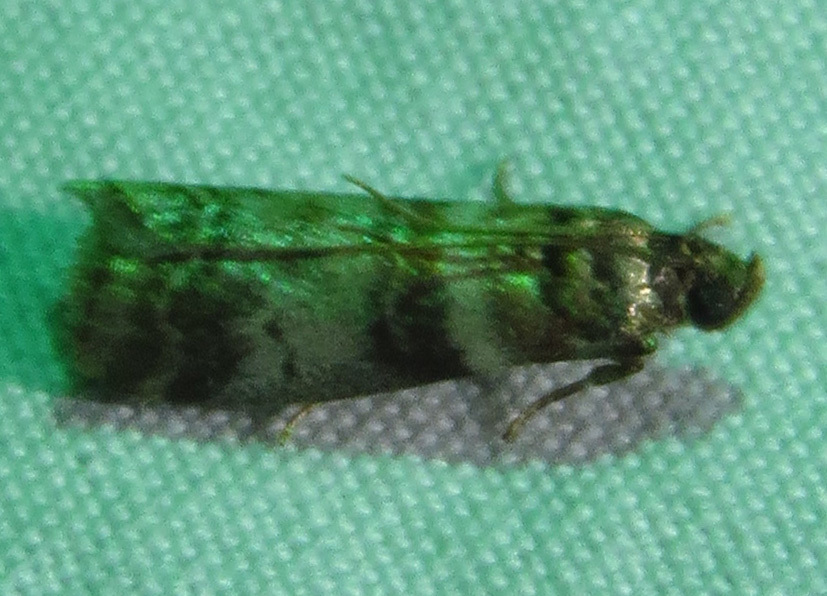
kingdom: Animalia
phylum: Arthropoda
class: Insecta
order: Lepidoptera
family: Pyralidae
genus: Sciota
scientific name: Sciota uvinella
